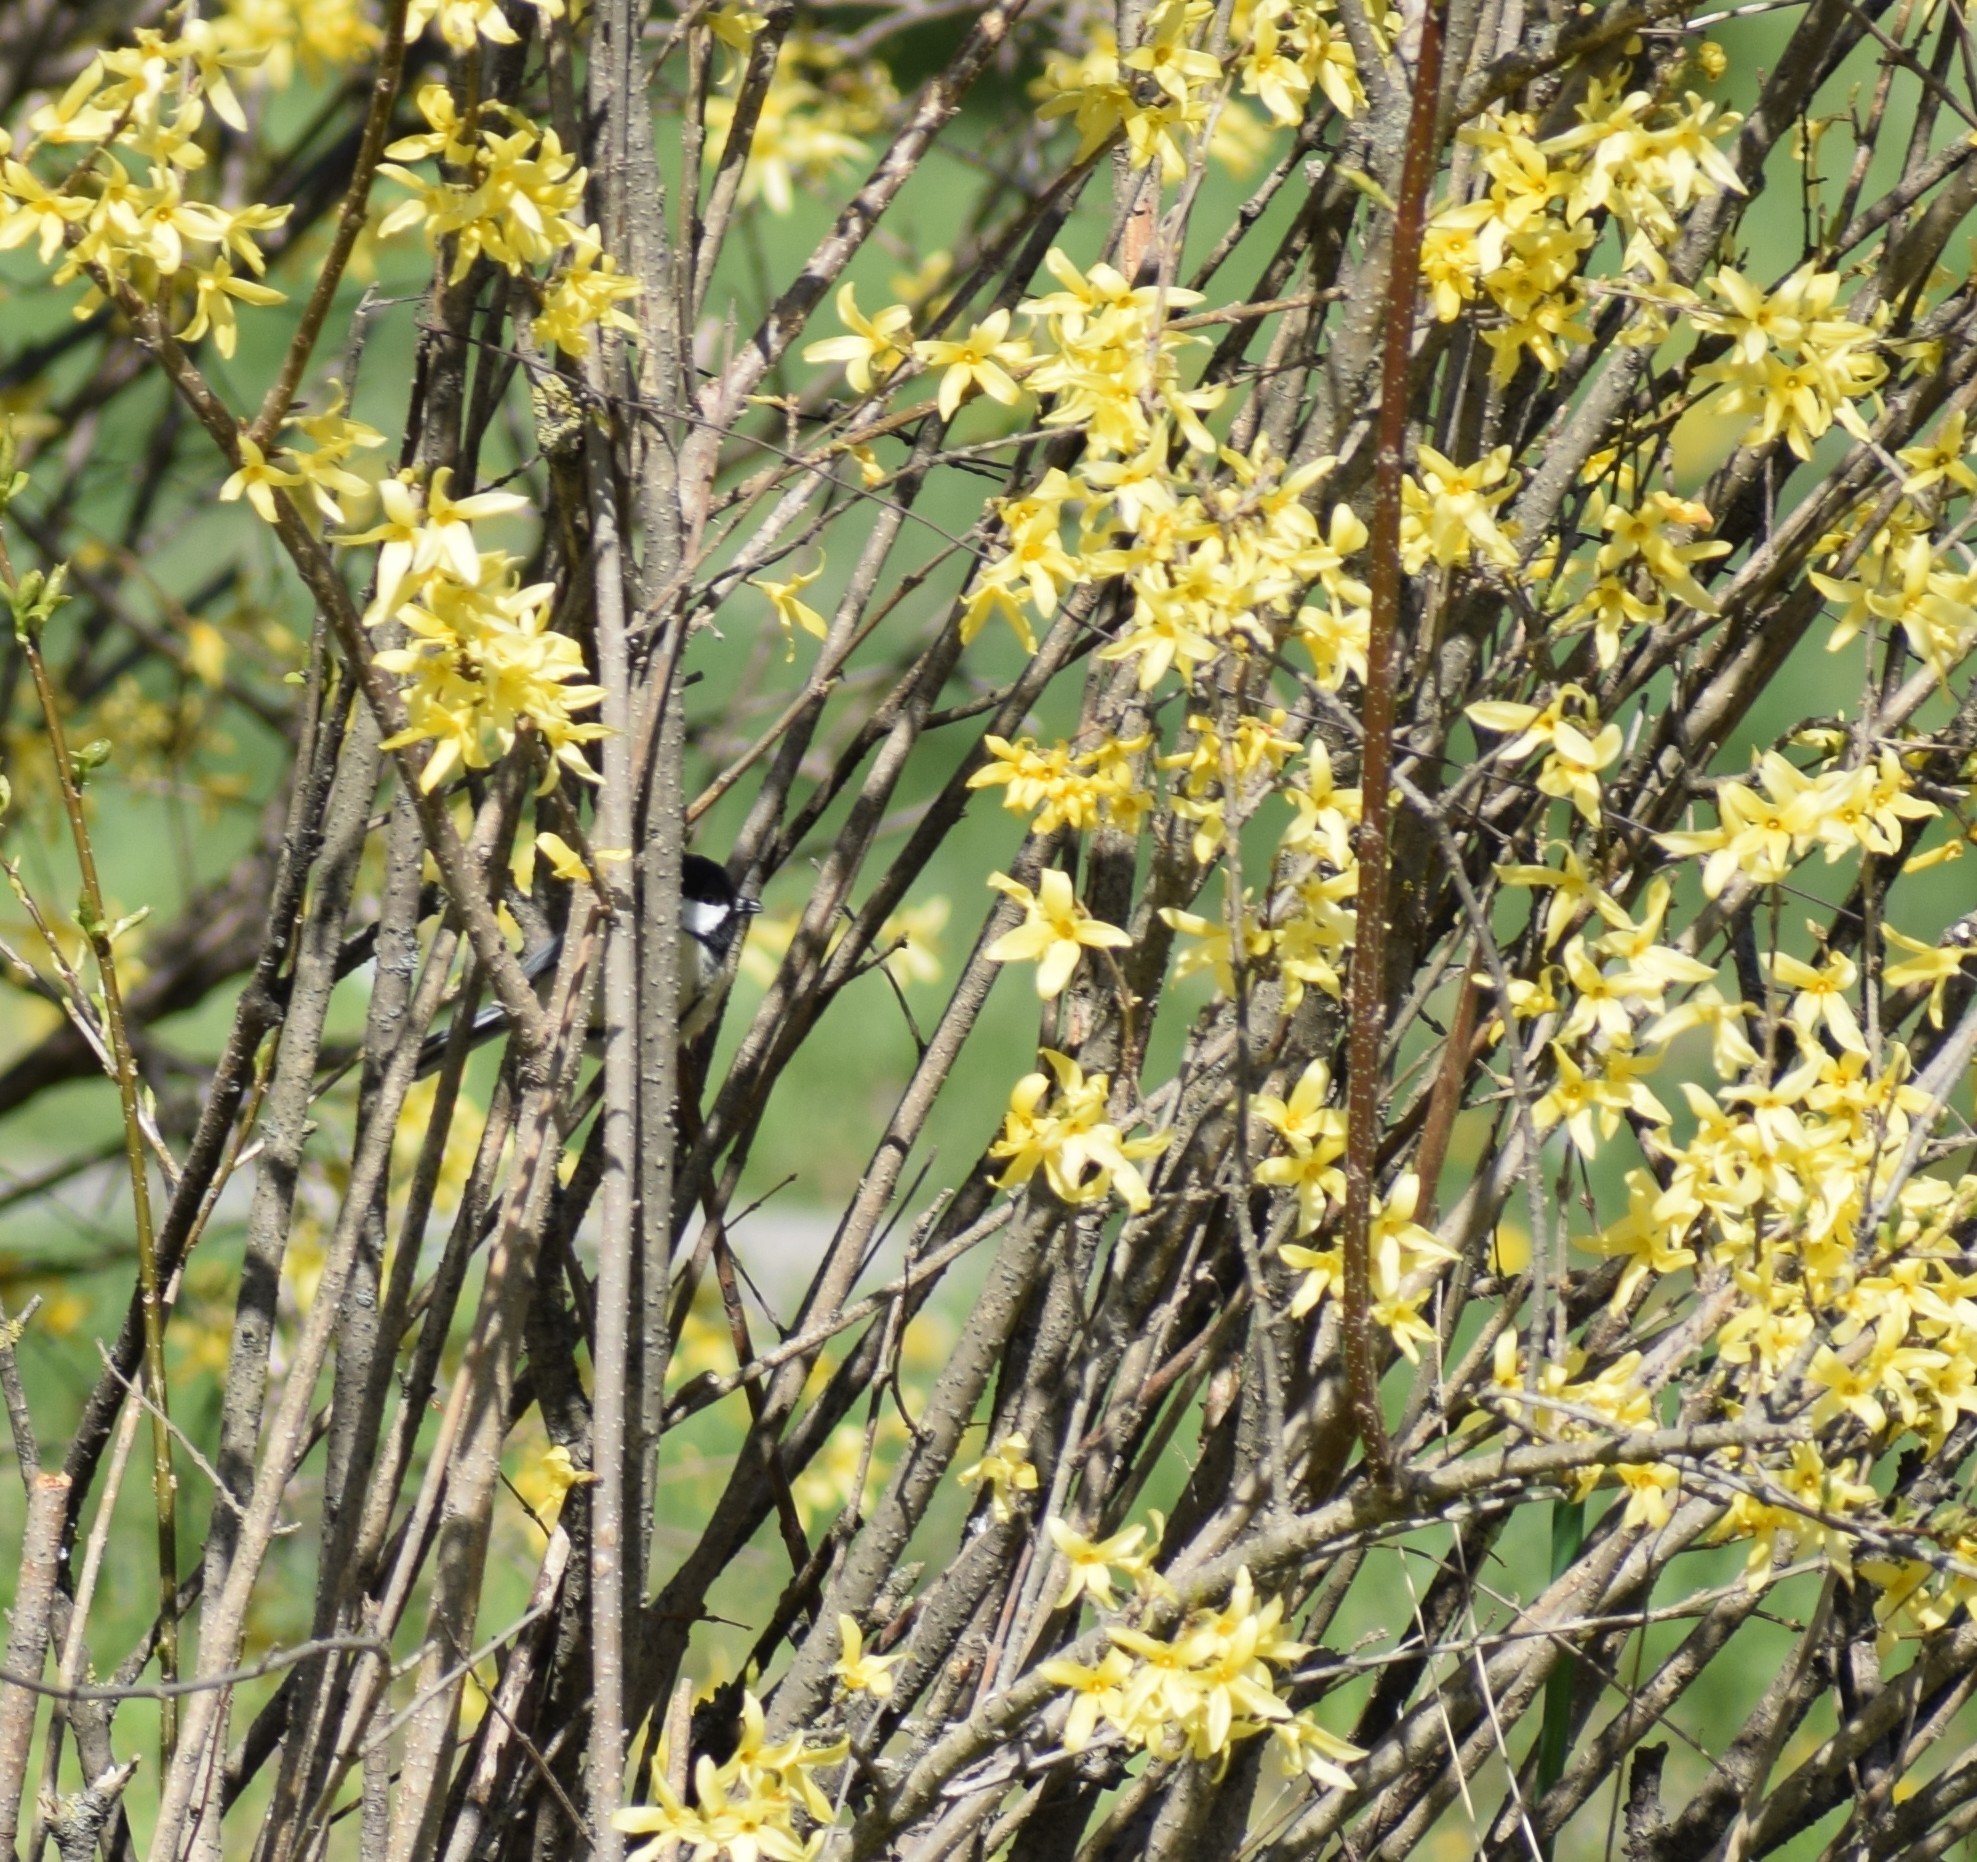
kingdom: Animalia
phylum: Chordata
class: Aves
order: Passeriformes
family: Paridae
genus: Parus
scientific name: Parus major
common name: Great tit
